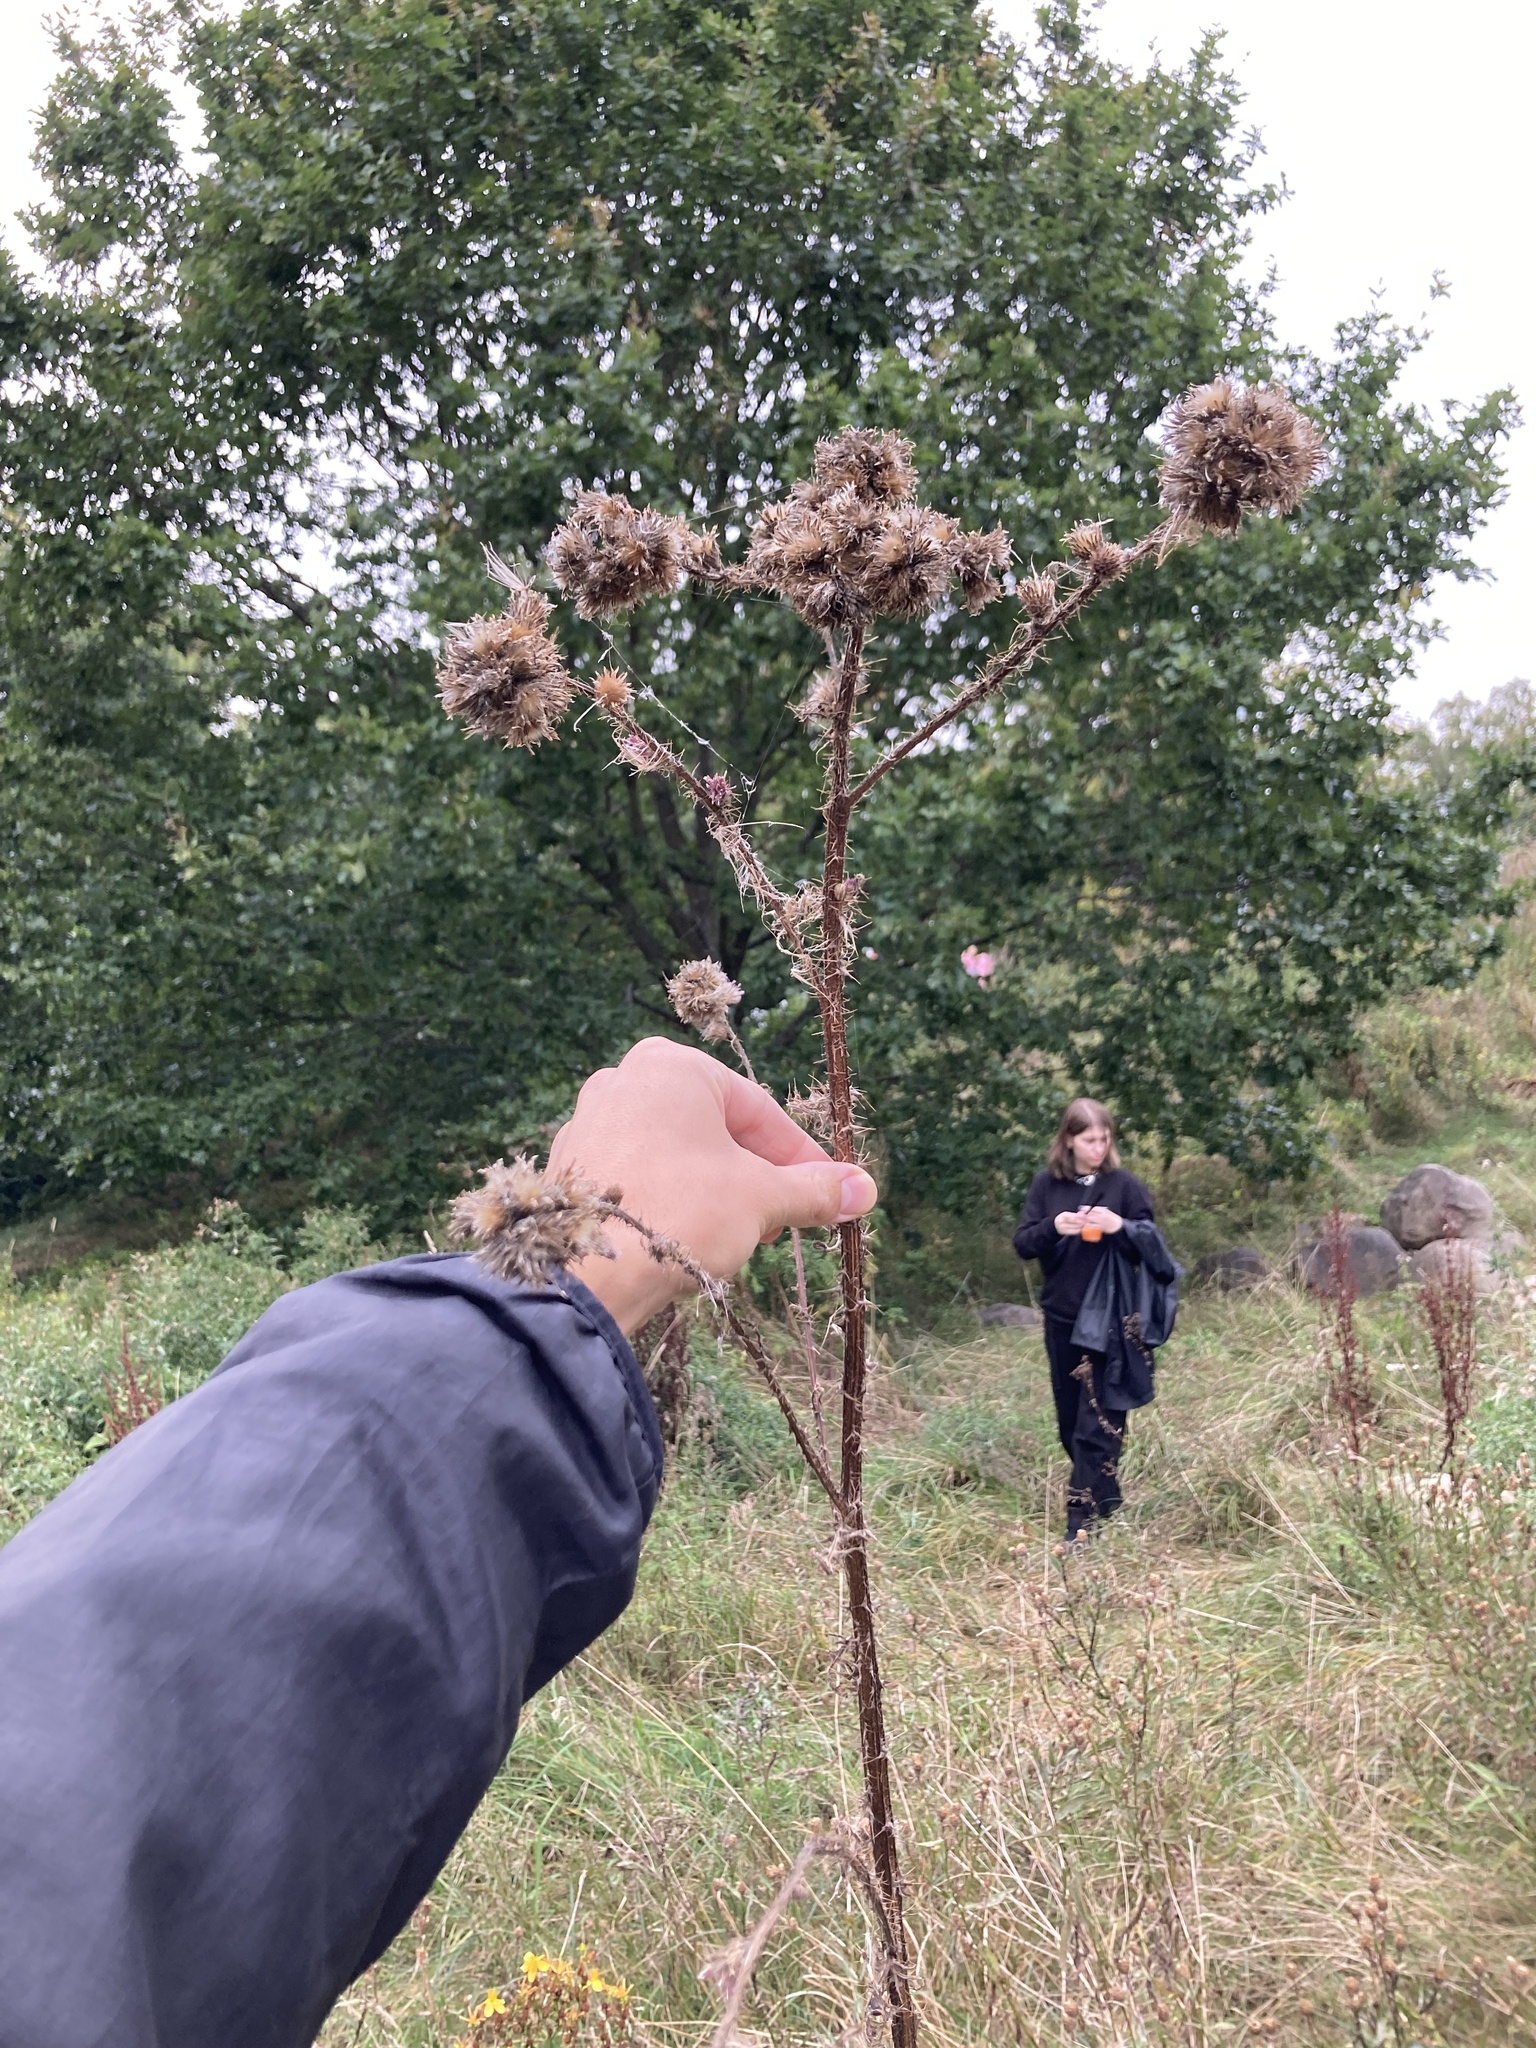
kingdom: Plantae
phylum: Tracheophyta
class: Magnoliopsida
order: Asterales
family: Asteraceae
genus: Cirsium
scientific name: Cirsium palustre
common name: Marsh thistle
